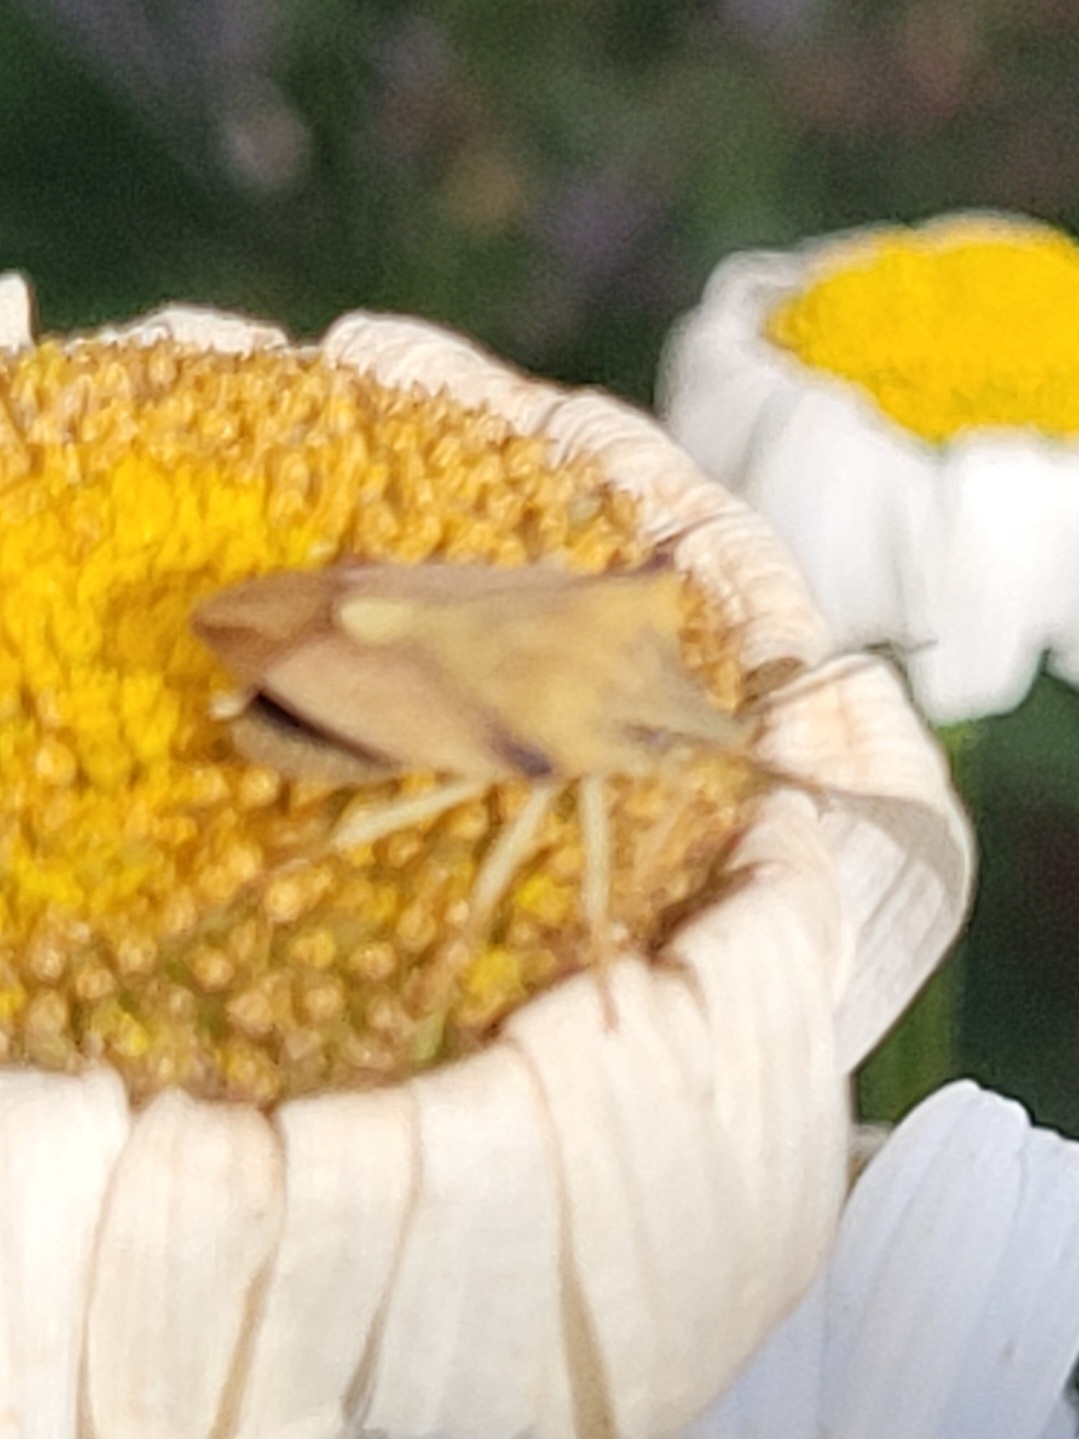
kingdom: Animalia
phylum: Arthropoda
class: Insecta
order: Hemiptera
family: Pentatomidae
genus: Carpocoris
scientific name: Carpocoris fuscispinus
